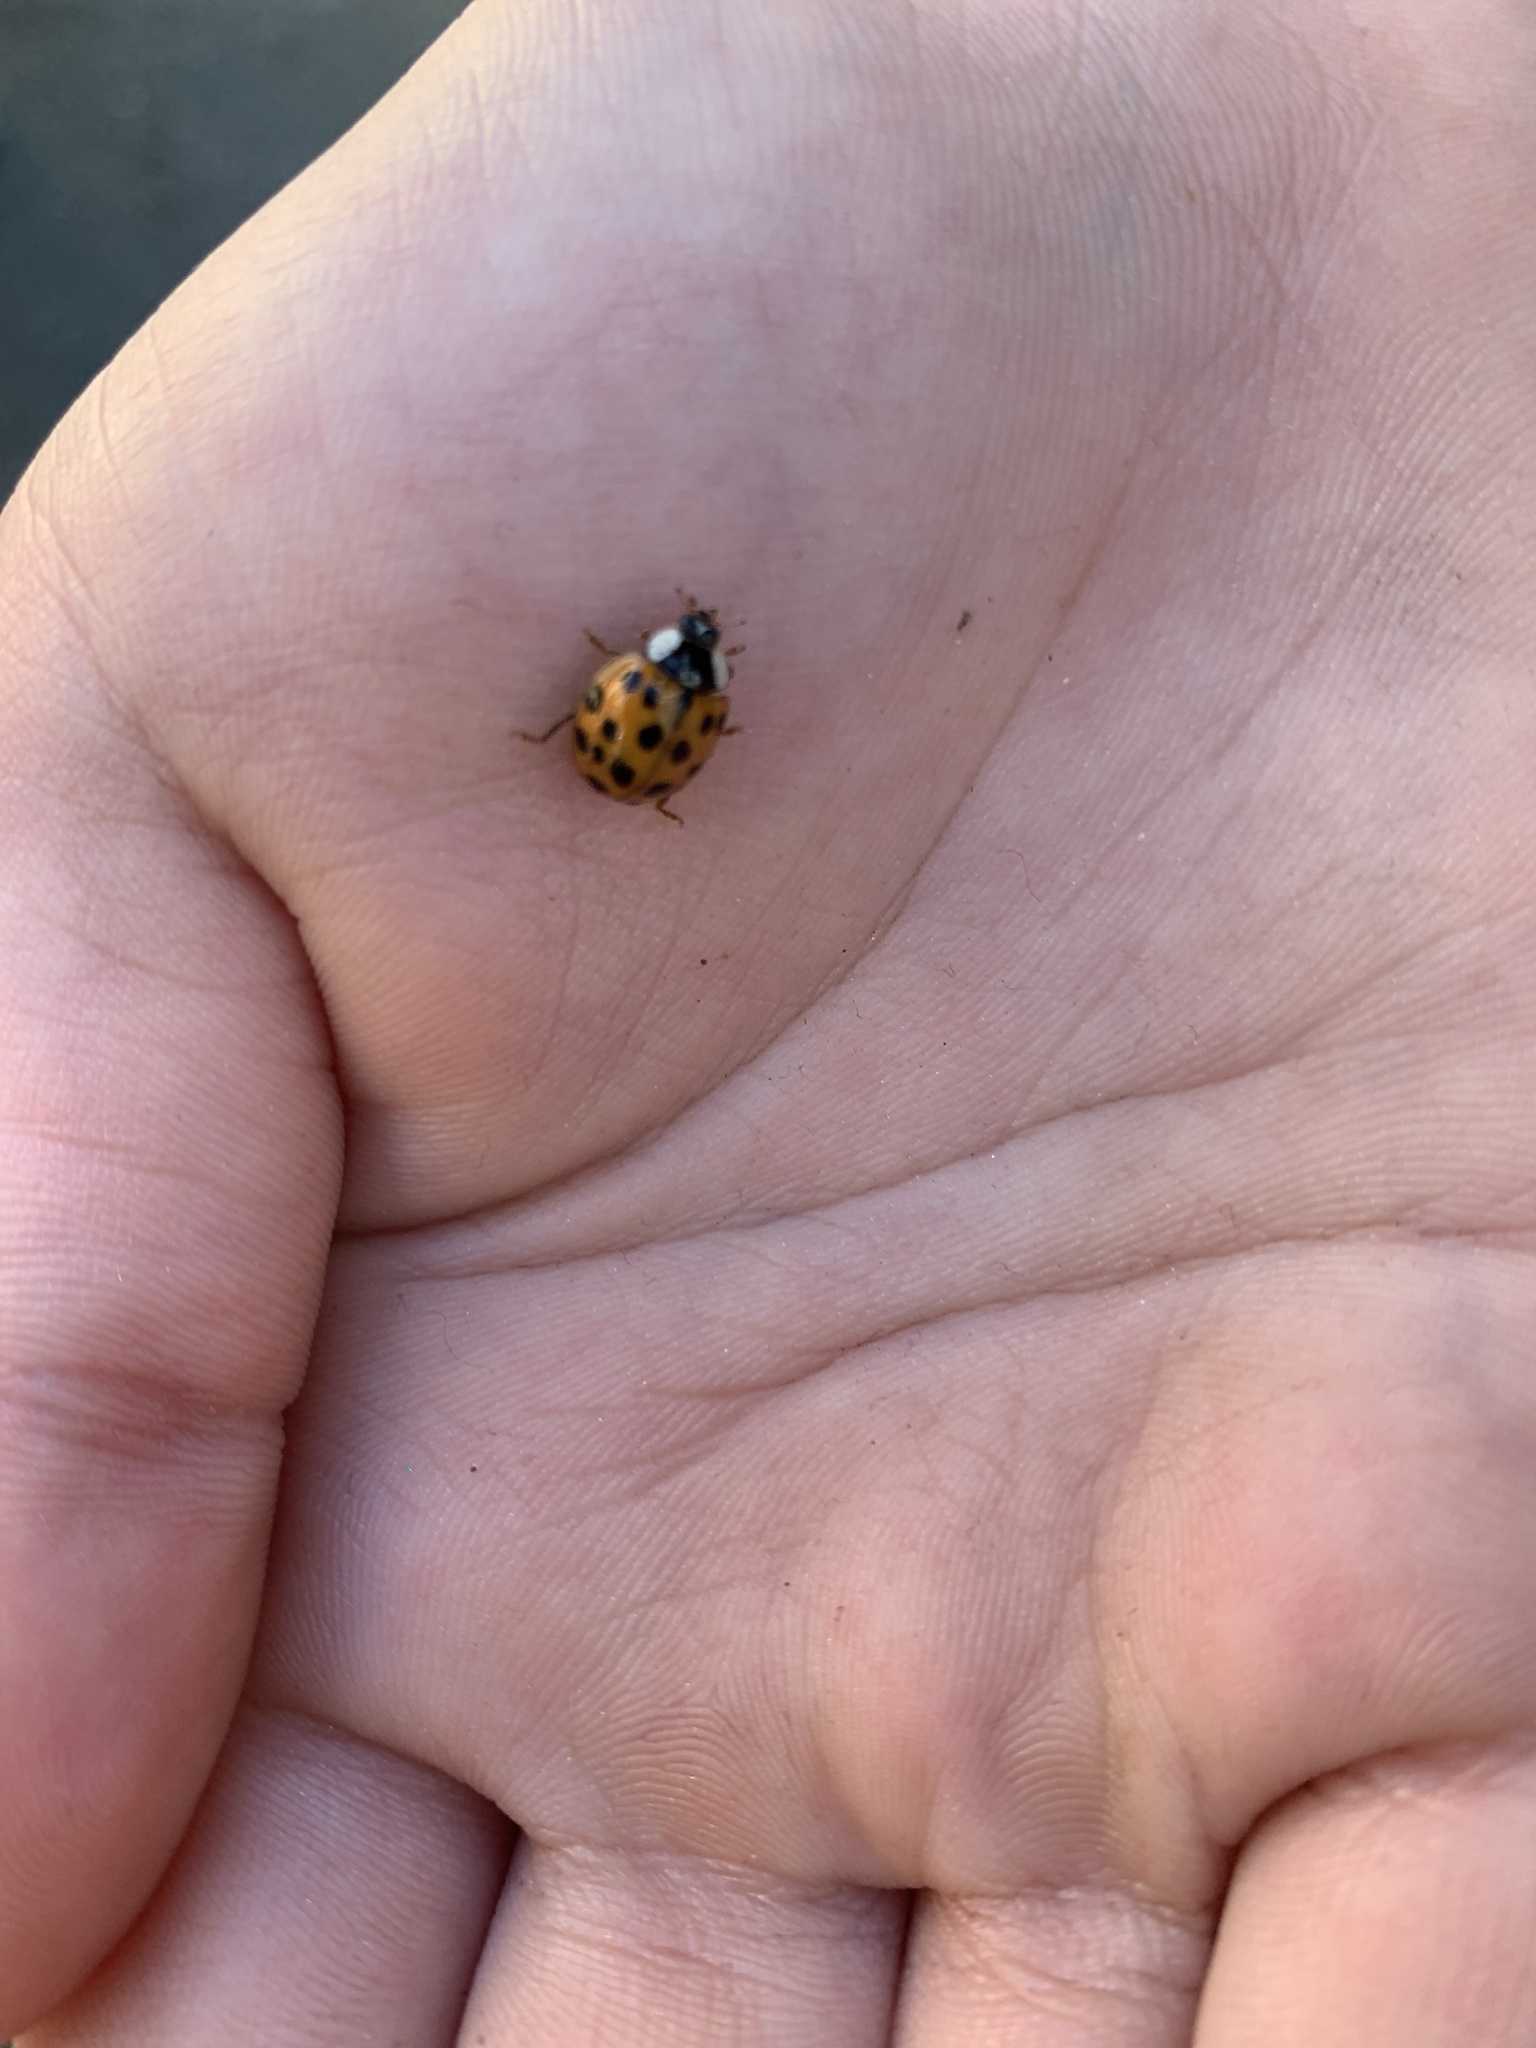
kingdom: Animalia
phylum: Arthropoda
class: Insecta
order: Coleoptera
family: Coccinellidae
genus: Harmonia
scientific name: Harmonia axyridis
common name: Harlequin ladybird
